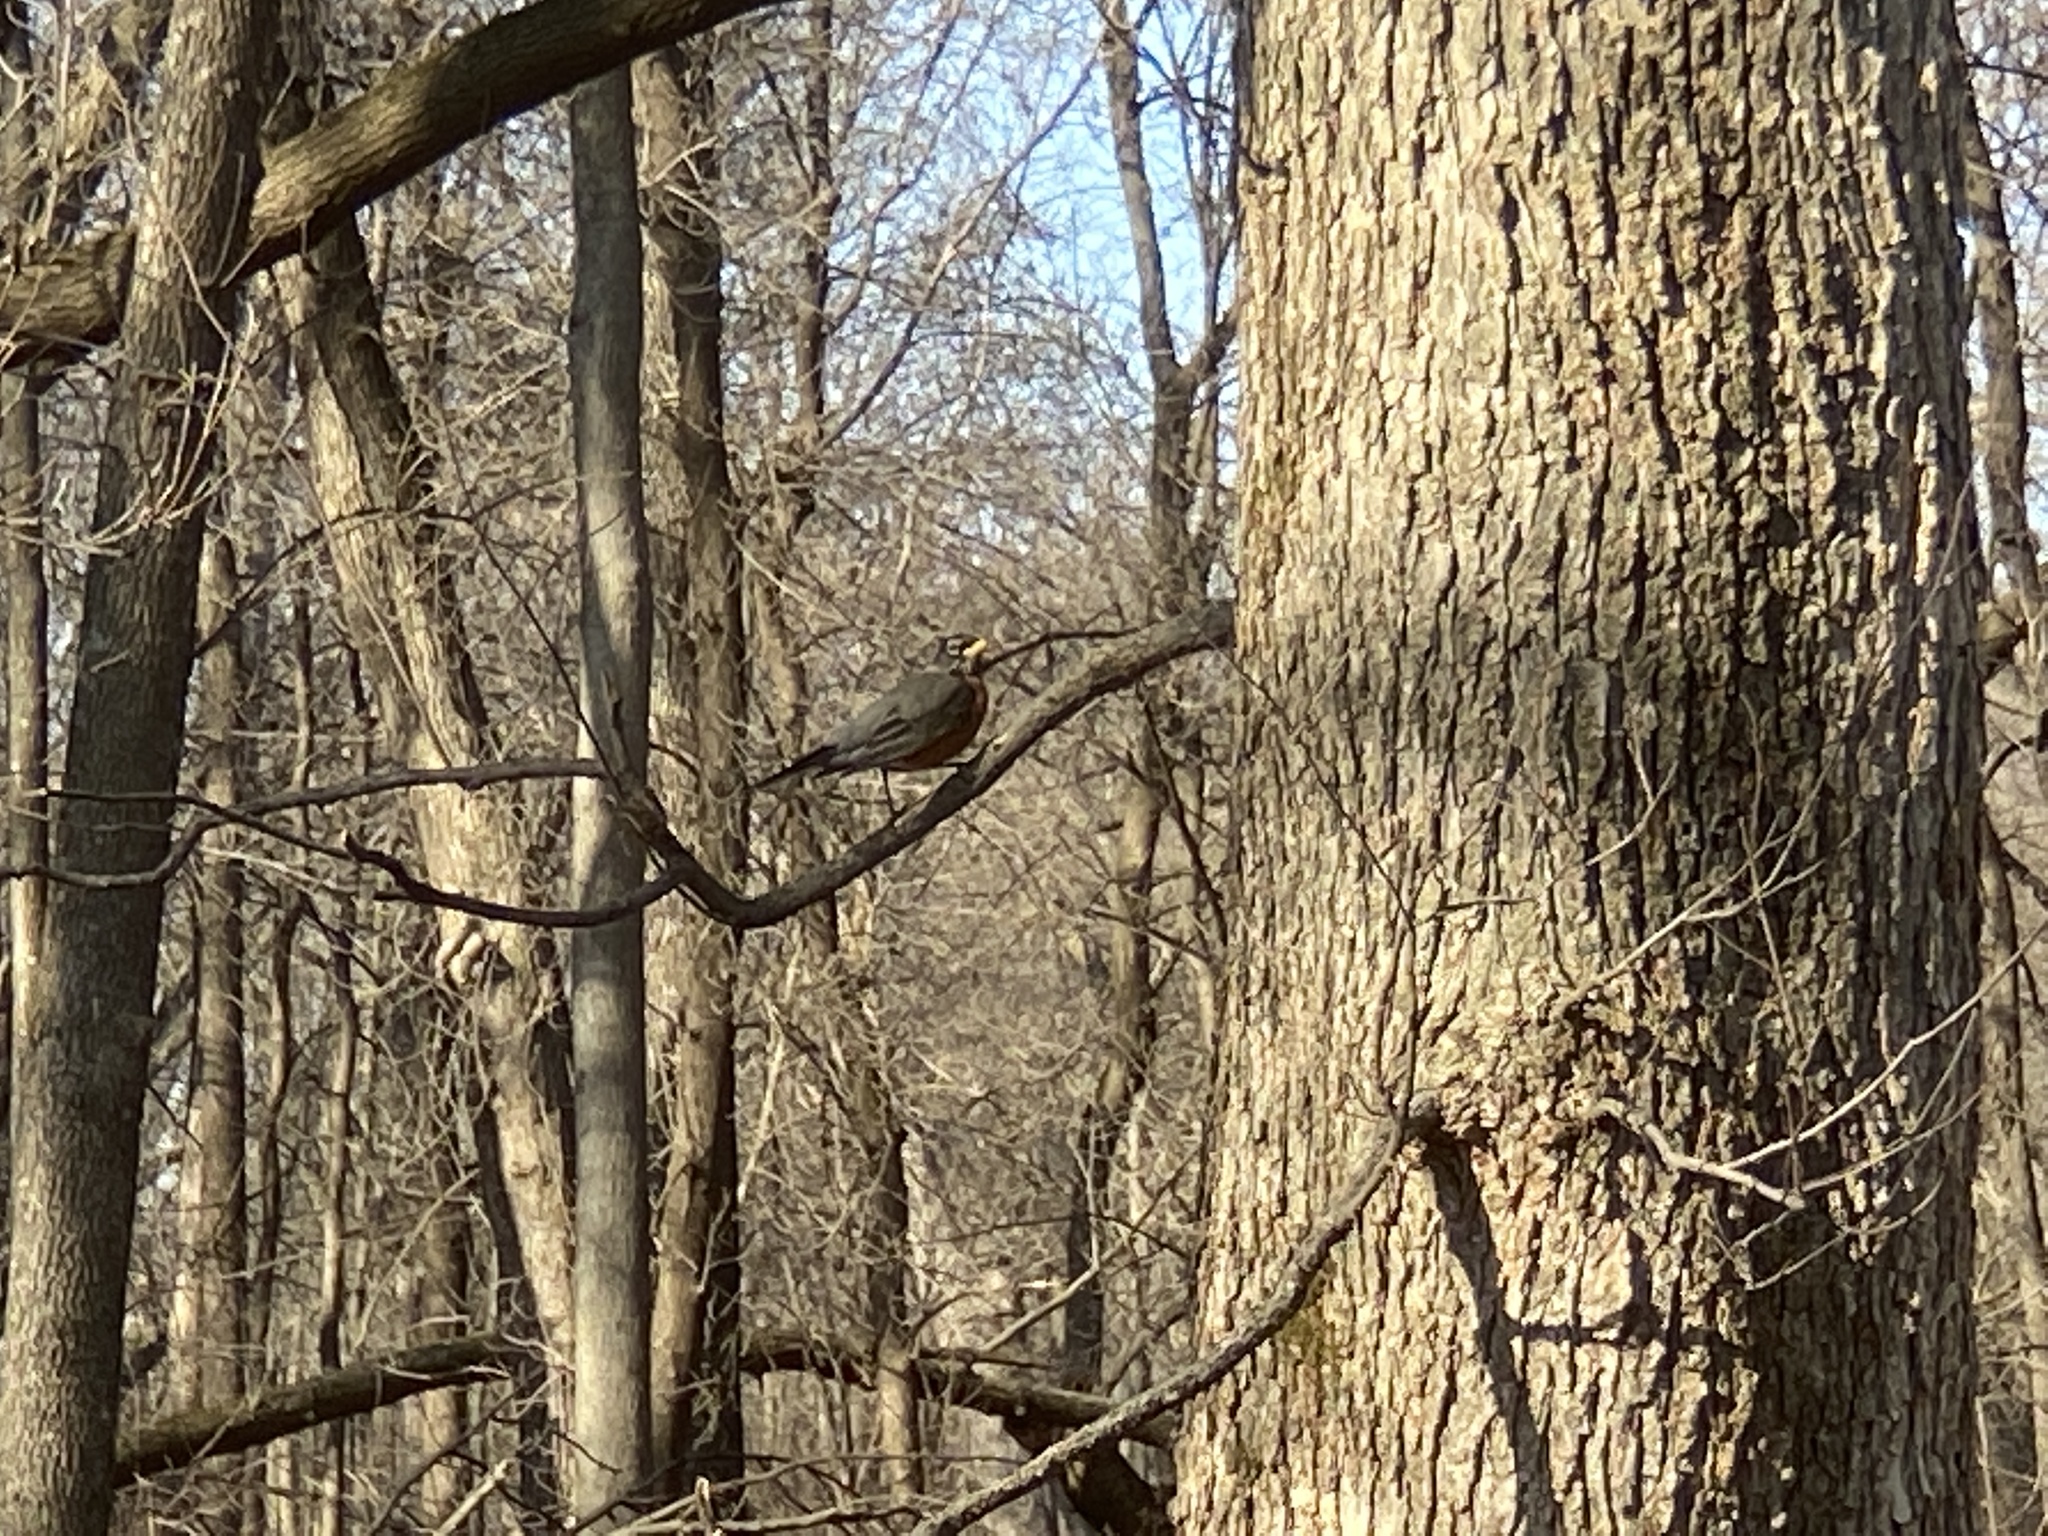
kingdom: Animalia
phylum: Chordata
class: Aves
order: Passeriformes
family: Turdidae
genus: Turdus
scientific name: Turdus migratorius
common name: American robin
